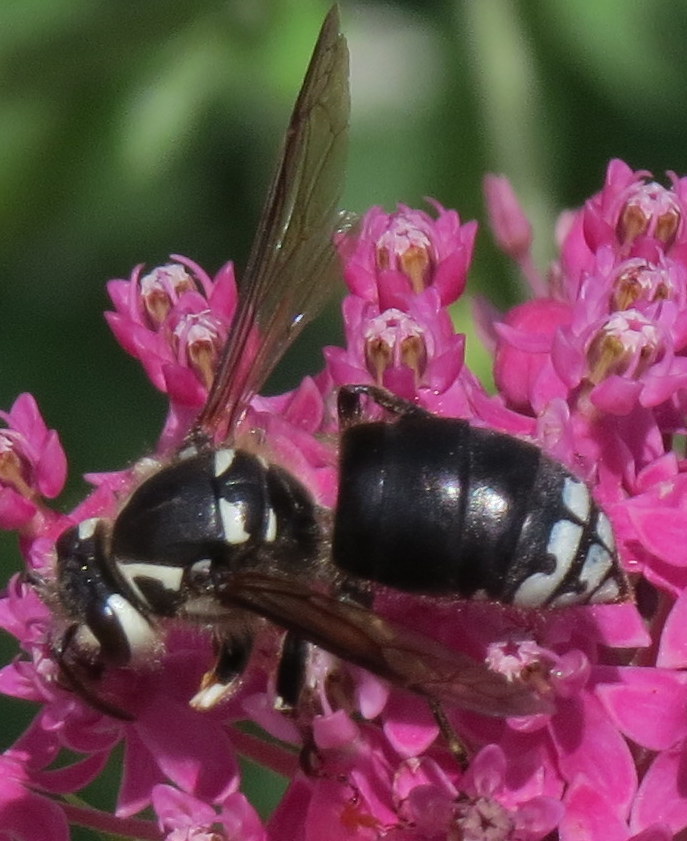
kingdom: Animalia
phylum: Arthropoda
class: Insecta
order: Hymenoptera
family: Vespidae
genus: Dolichovespula
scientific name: Dolichovespula maculata
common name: Bald-faced hornet
